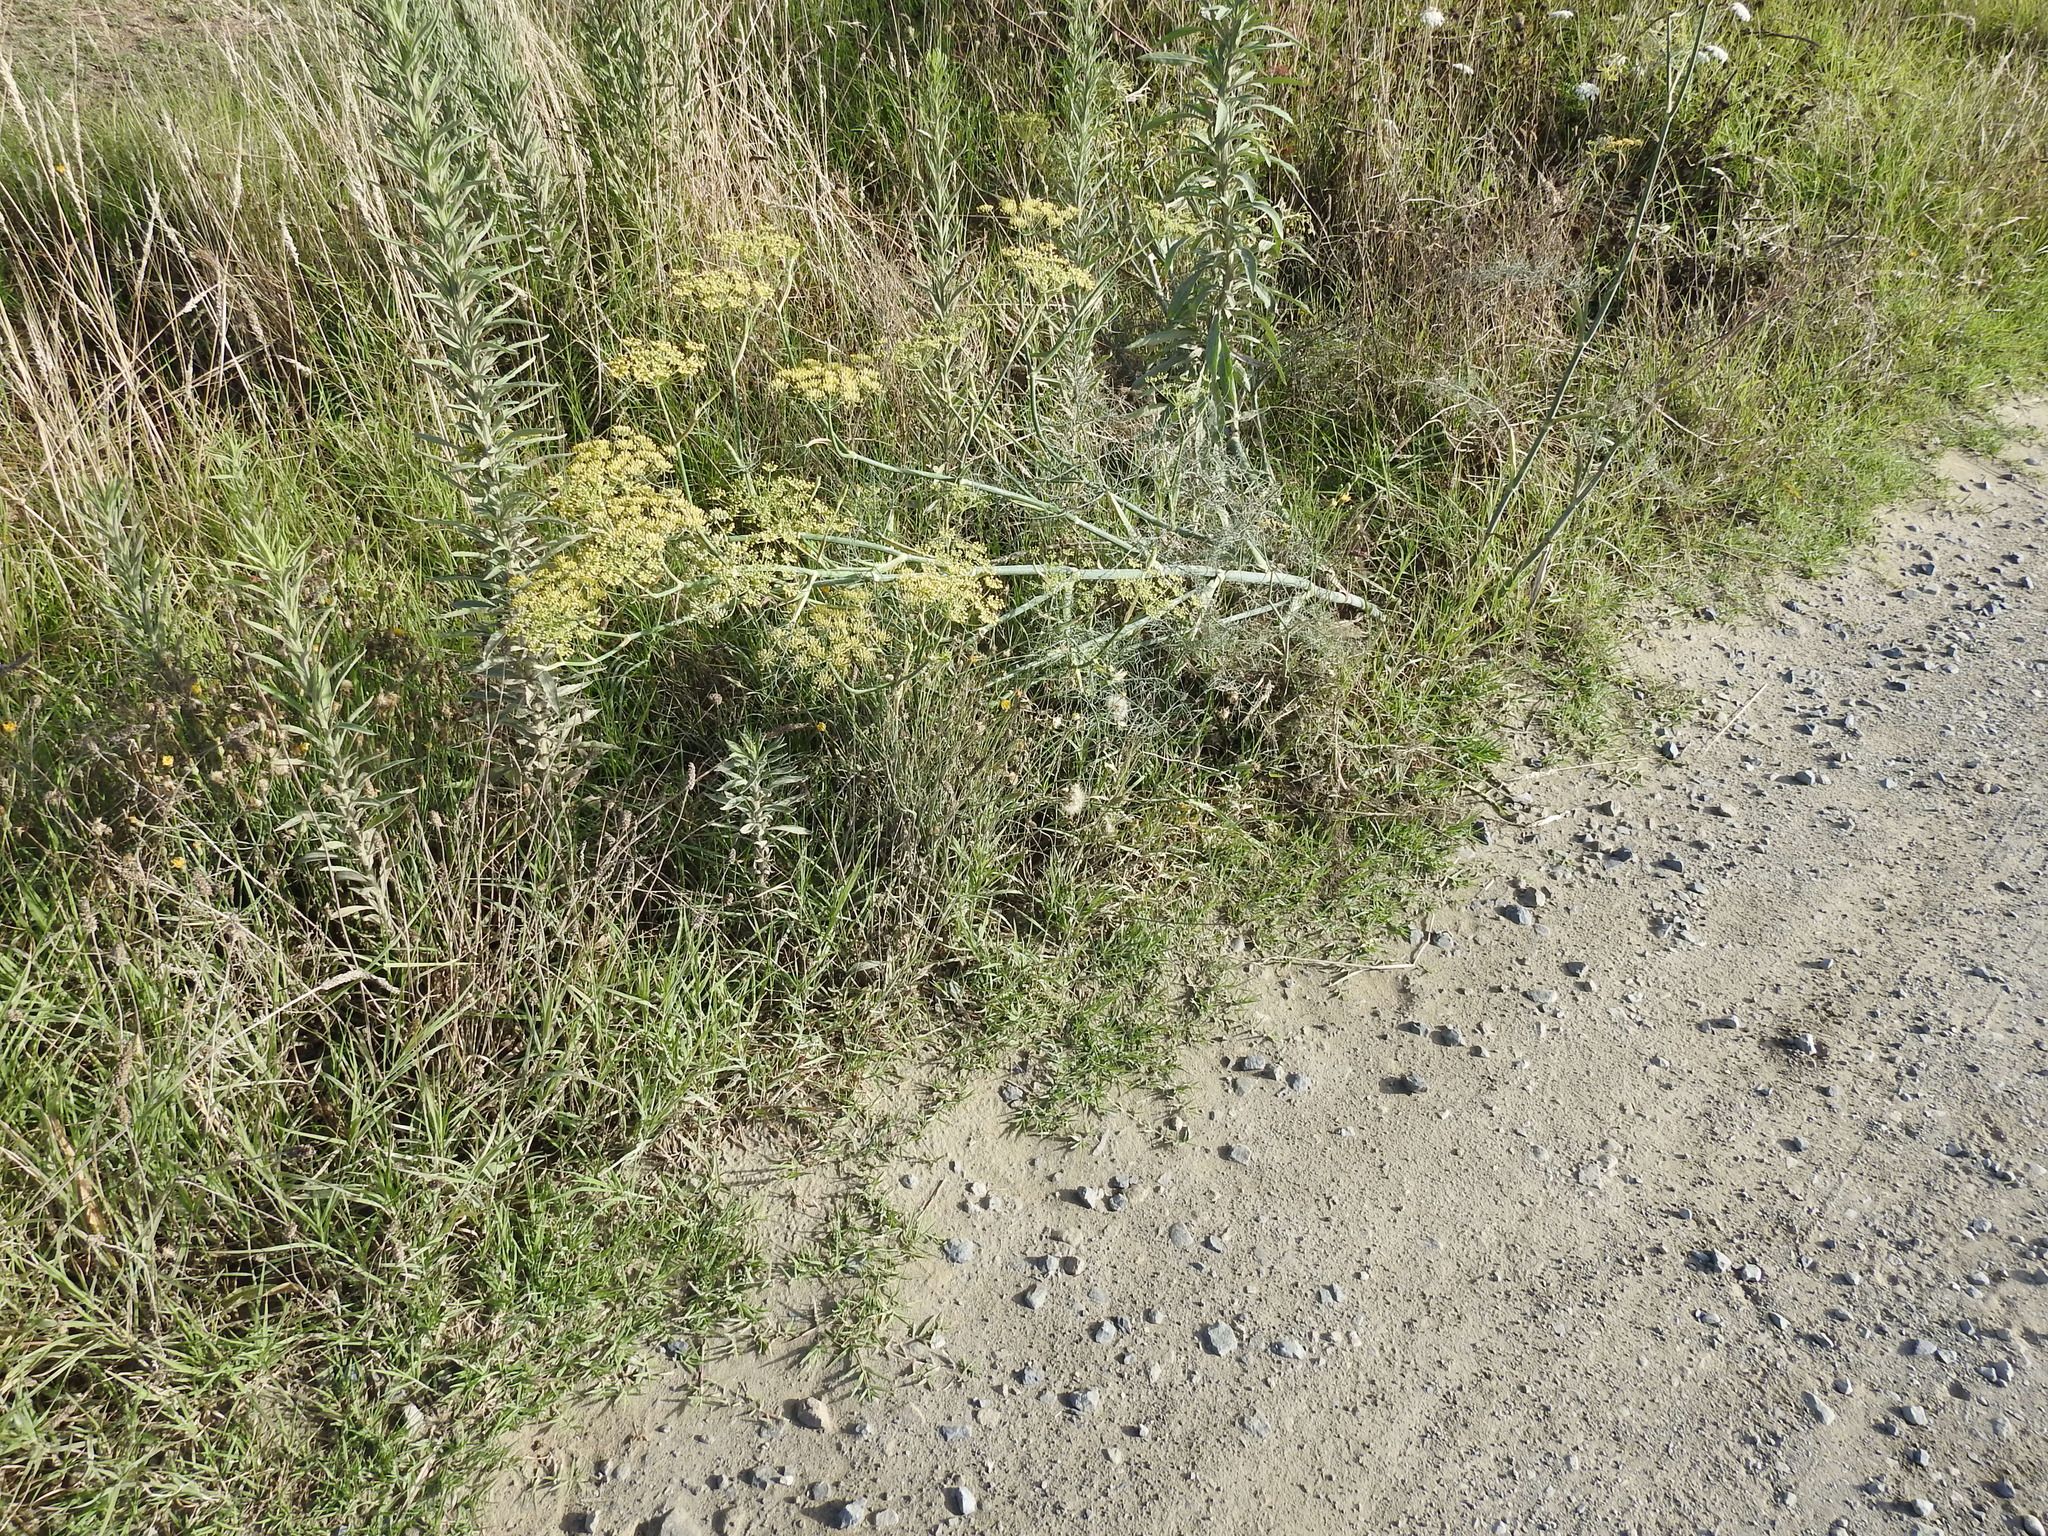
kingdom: Plantae
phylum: Tracheophyta
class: Magnoliopsida
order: Apiales
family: Apiaceae
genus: Foeniculum
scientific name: Foeniculum vulgare
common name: Fennel
